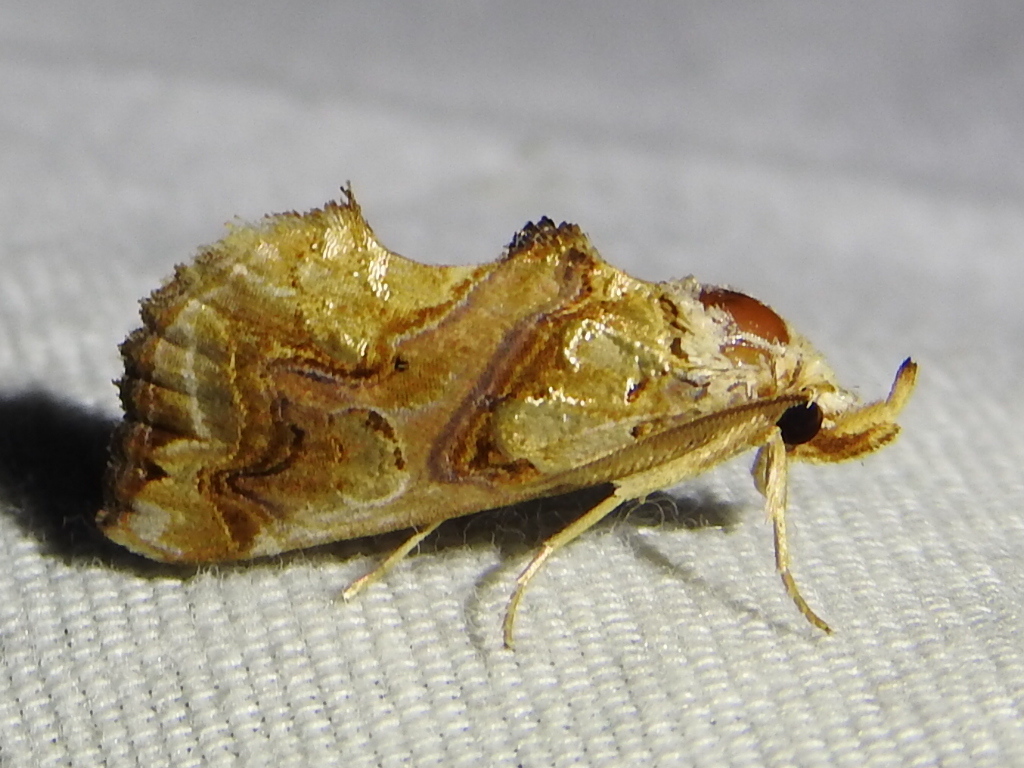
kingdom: Animalia
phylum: Arthropoda
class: Insecta
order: Lepidoptera
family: Erebidae
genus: Plusiodonta
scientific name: Plusiodonta compressipalpis
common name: Moonseed moth
